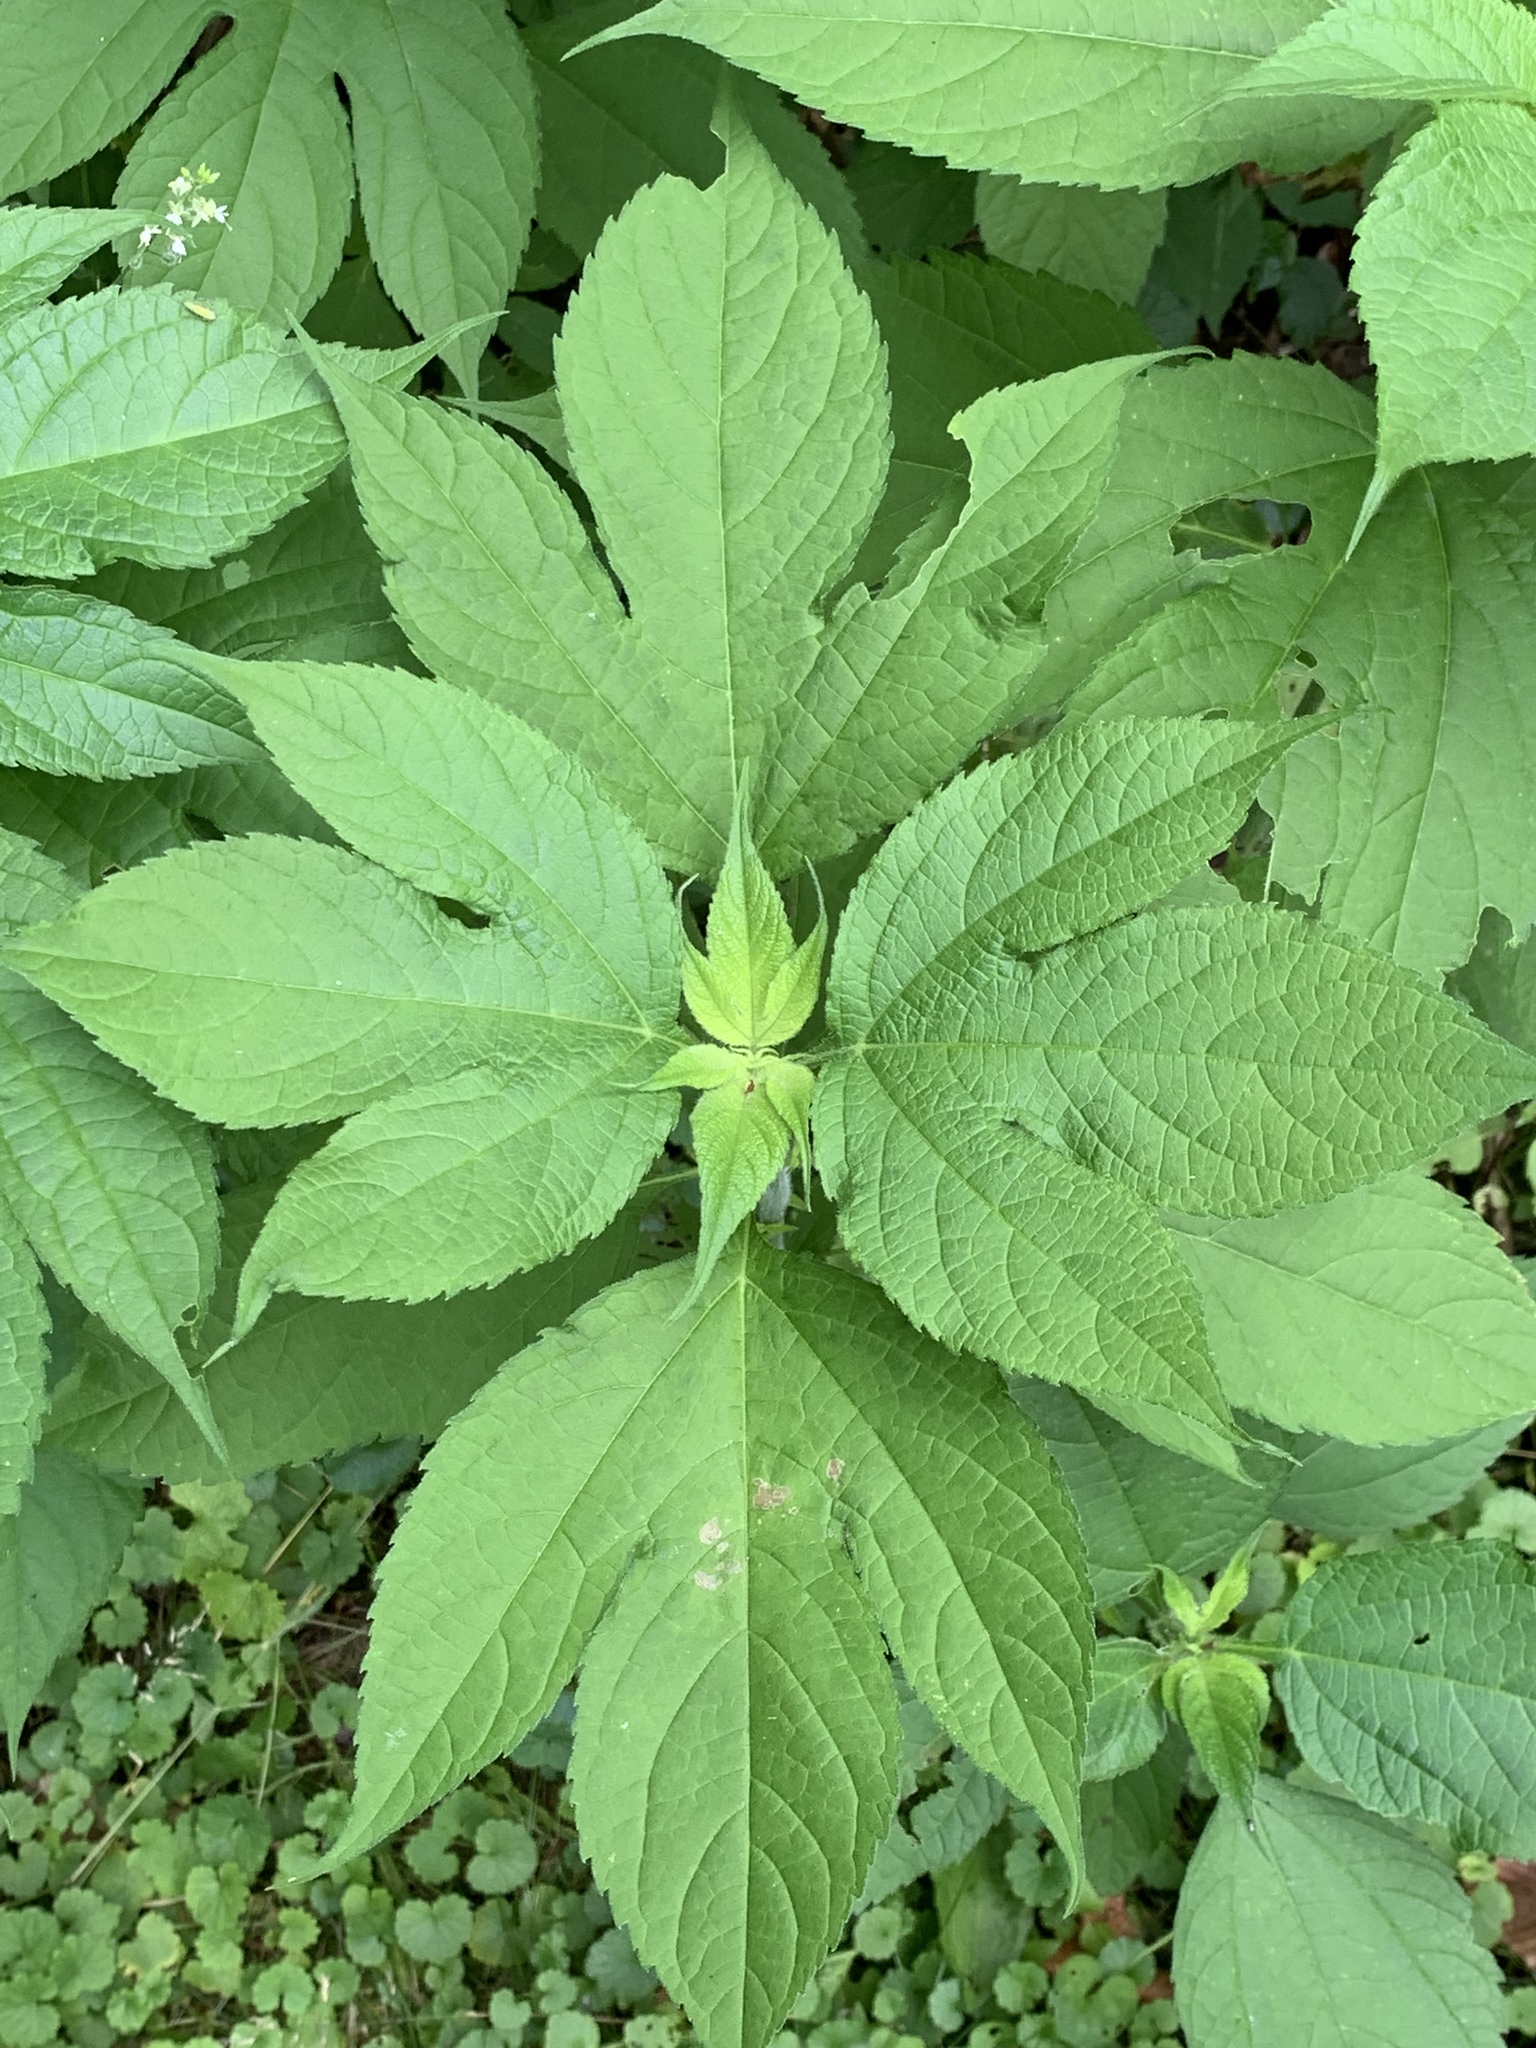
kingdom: Plantae
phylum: Tracheophyta
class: Magnoliopsida
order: Asterales
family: Asteraceae
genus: Ambrosia
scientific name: Ambrosia trifida
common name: Giant ragweed
